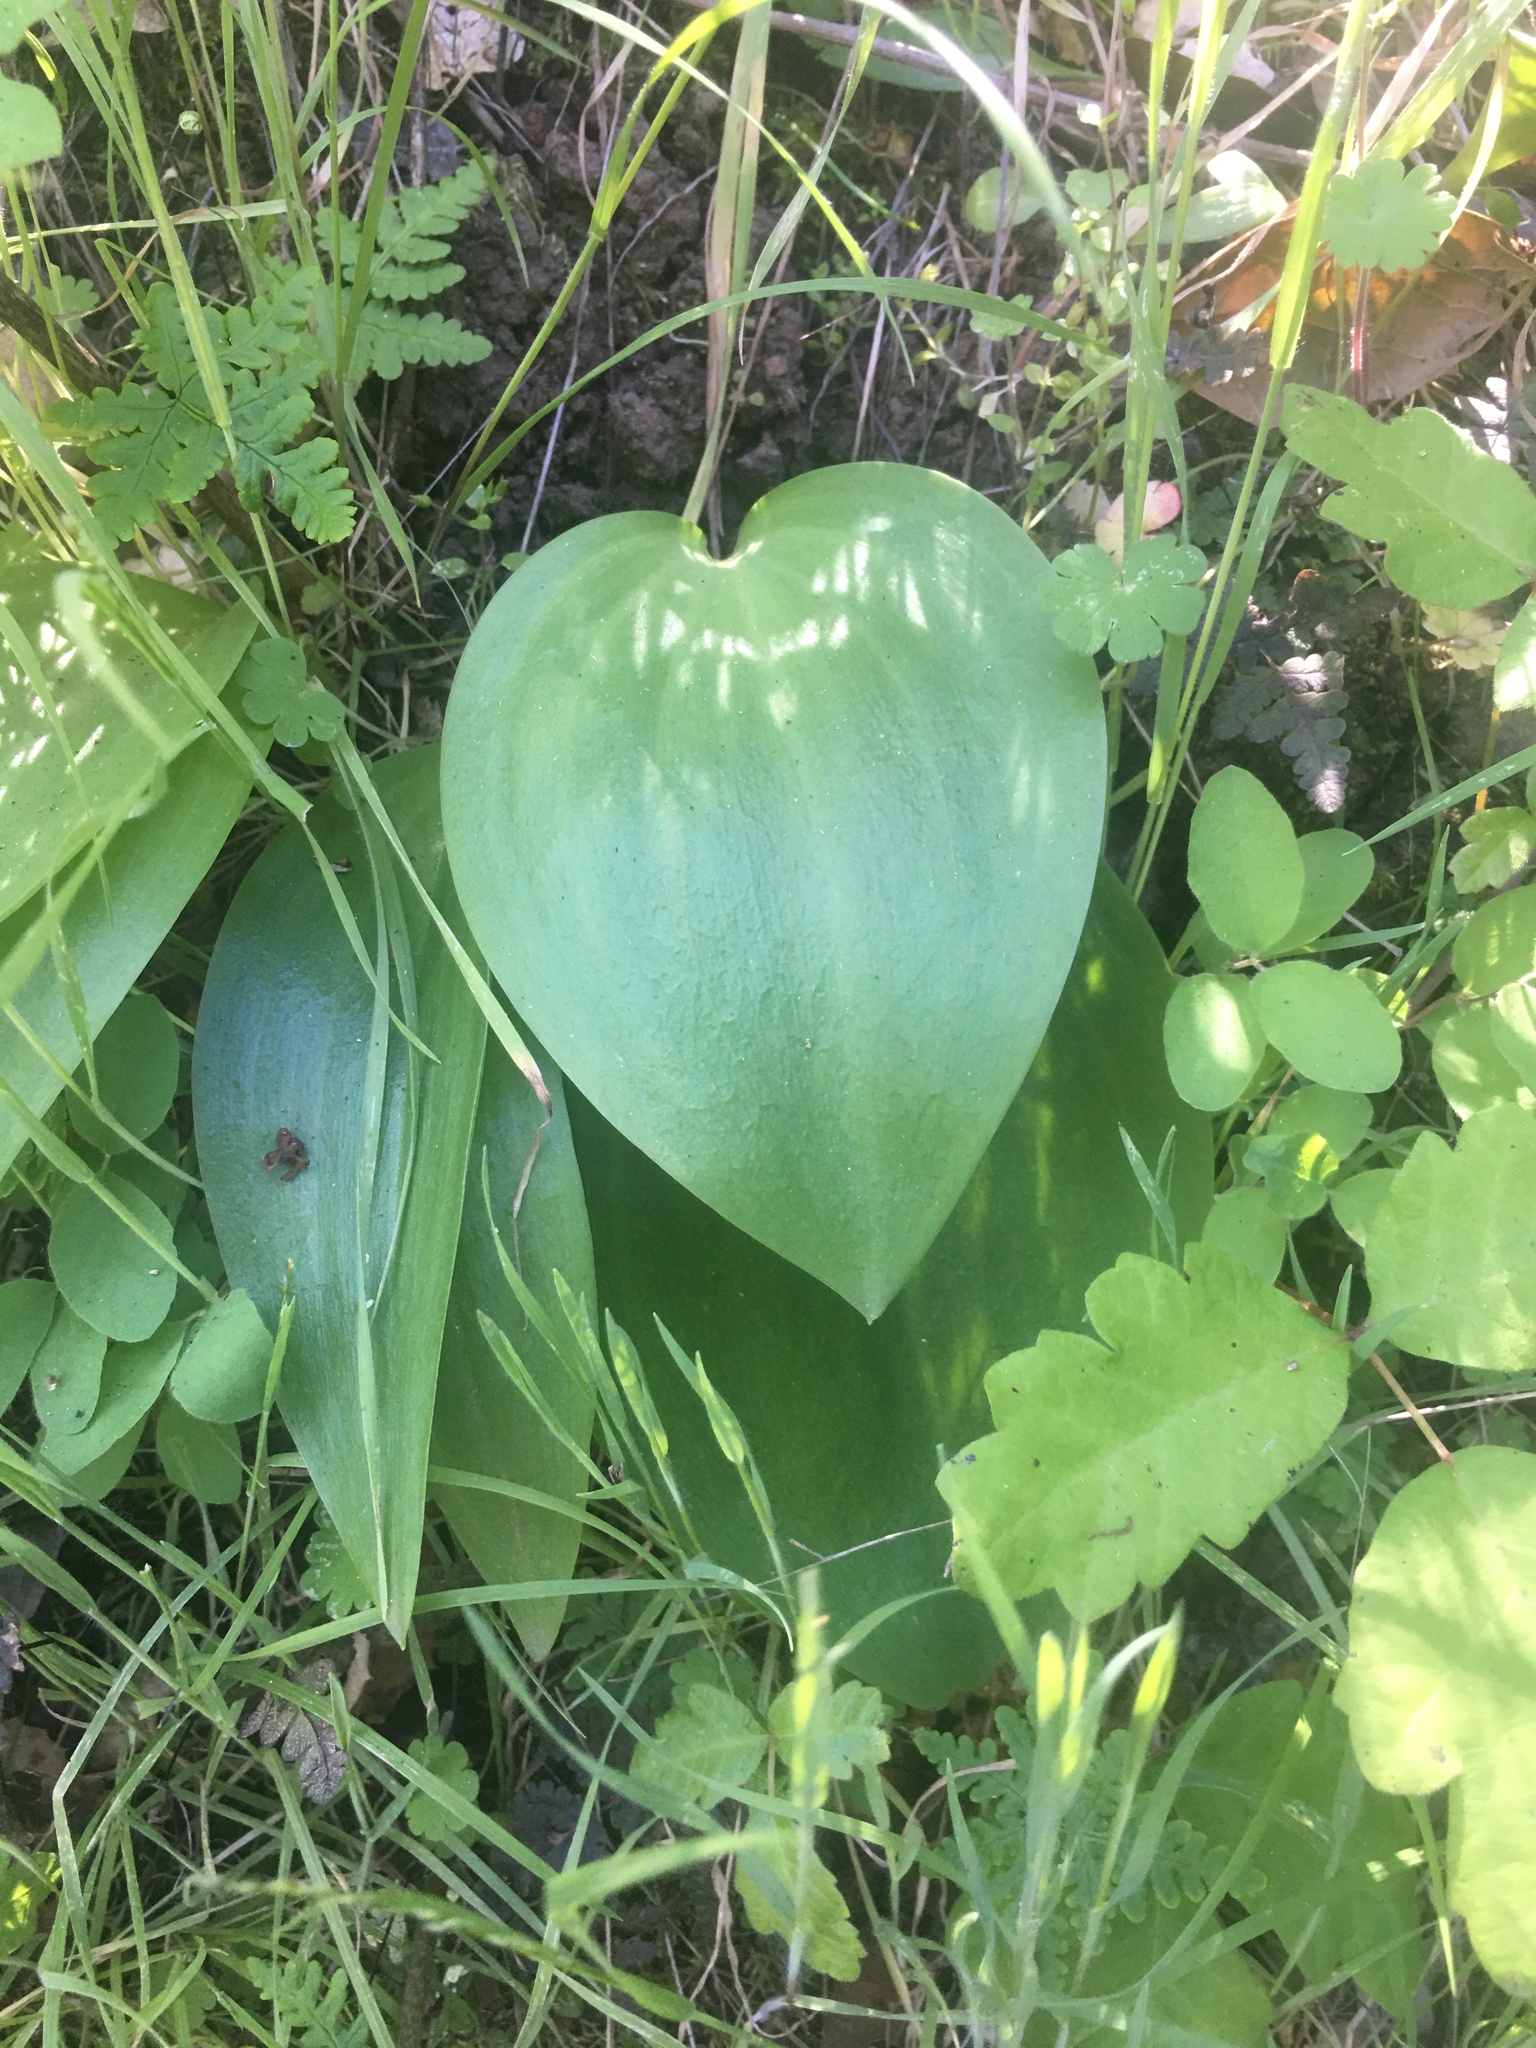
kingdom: Plantae
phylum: Tracheophyta
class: Liliopsida
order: Liliales
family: Liliaceae
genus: Fritillaria
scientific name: Fritillaria affinis
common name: Ojai fritillary
